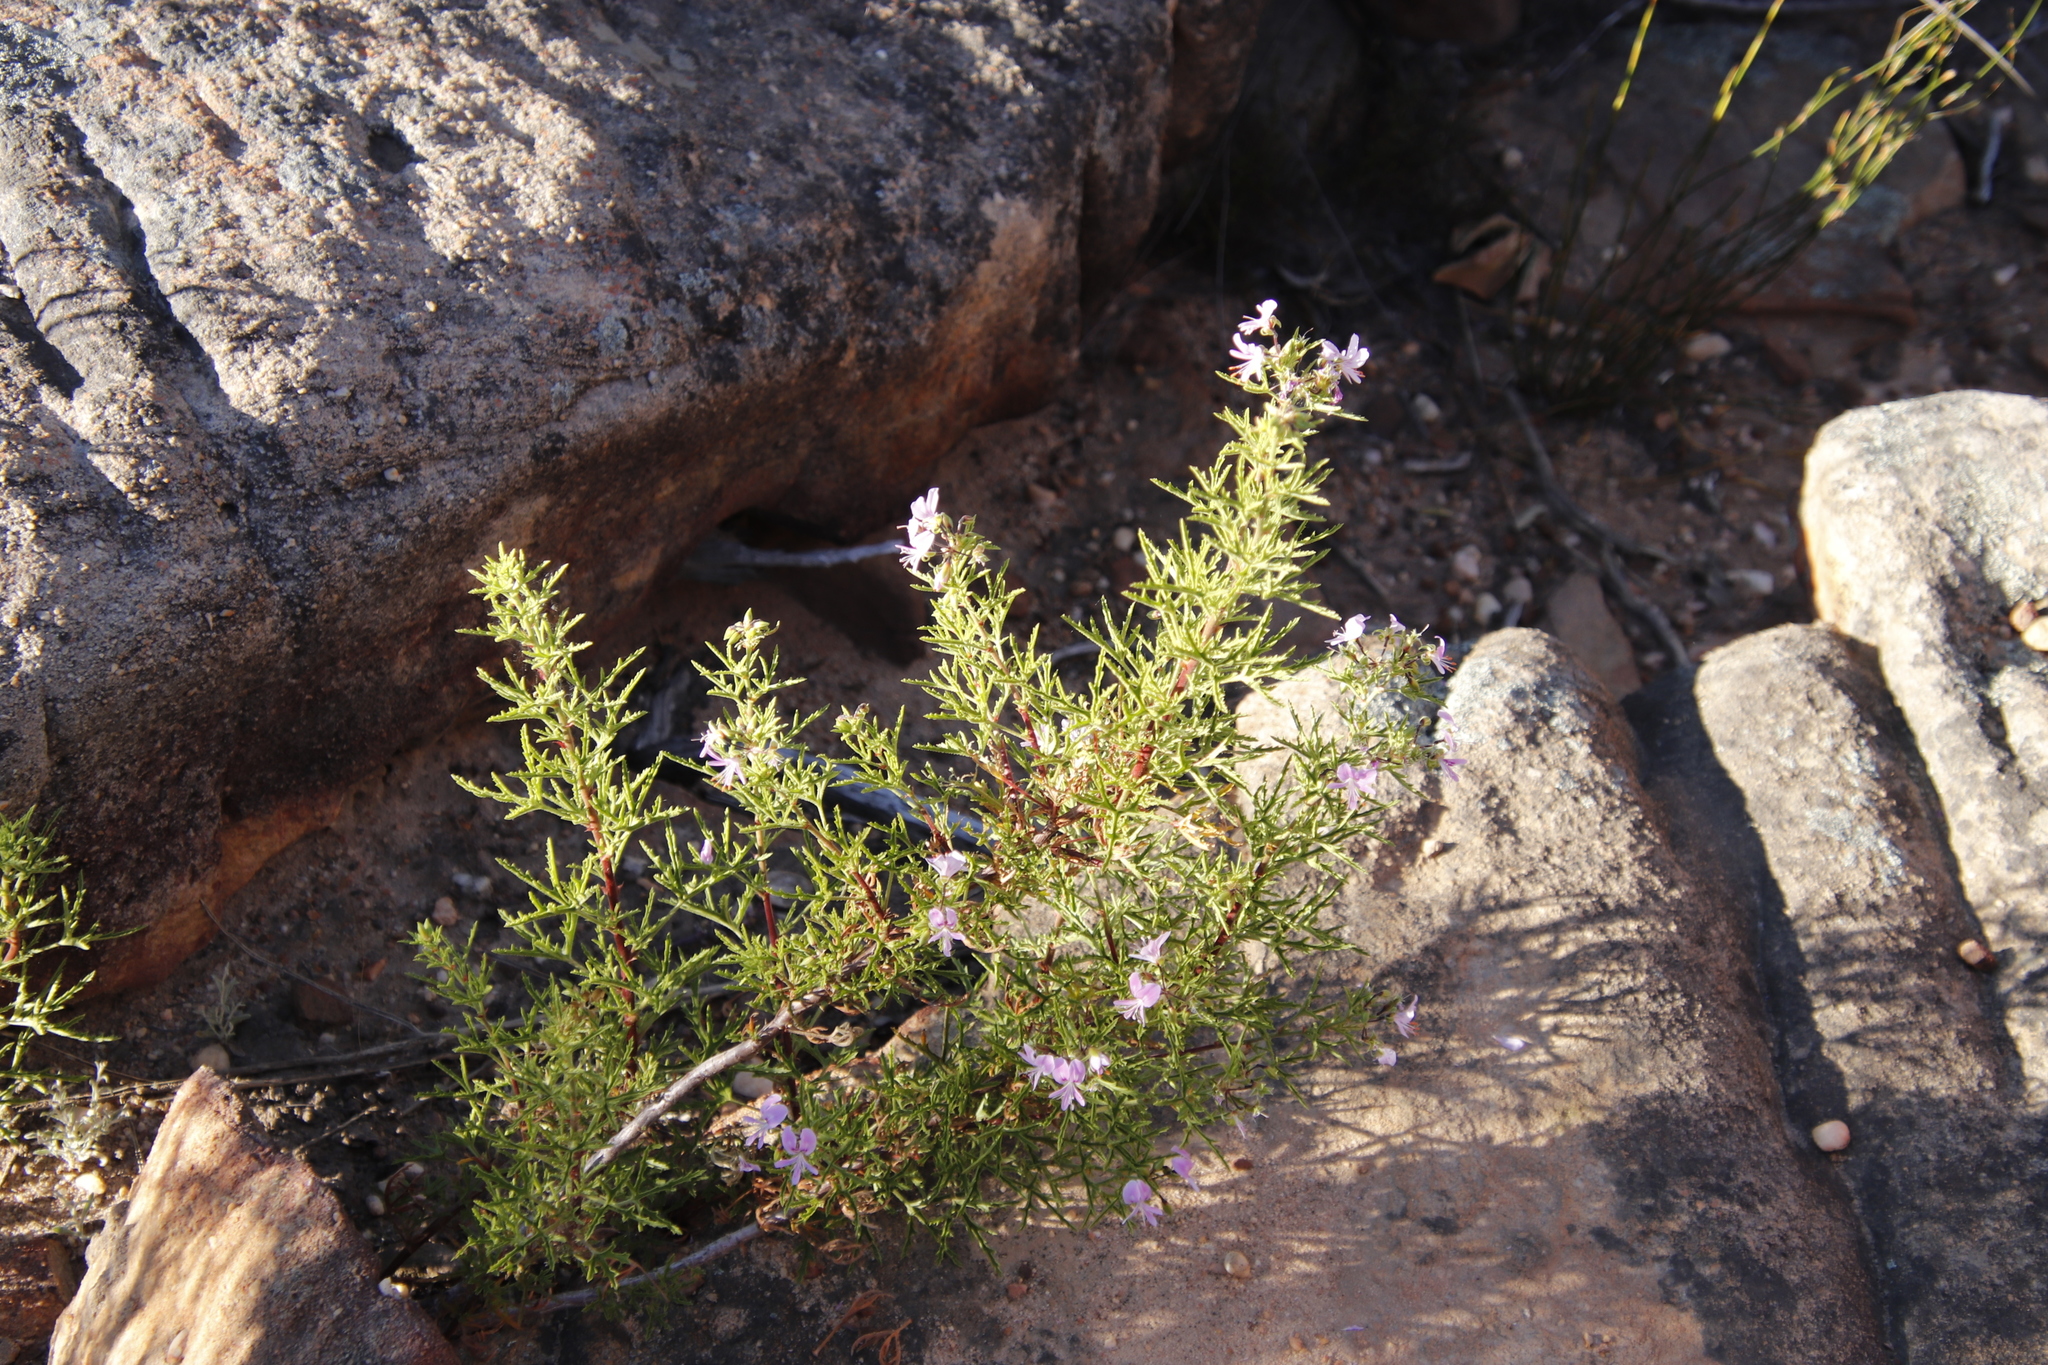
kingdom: Plantae
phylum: Tracheophyta
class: Magnoliopsida
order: Geraniales
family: Geraniaceae
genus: Pelargonium
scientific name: Pelargonium scabrum
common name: Apricot geranium
